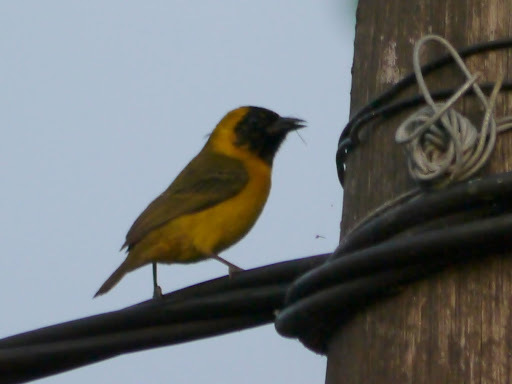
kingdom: Animalia
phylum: Chordata
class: Aves
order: Passeriformes
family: Ploceidae
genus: Ploceus
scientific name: Ploceus pelzelni
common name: Slender-billed weaver
